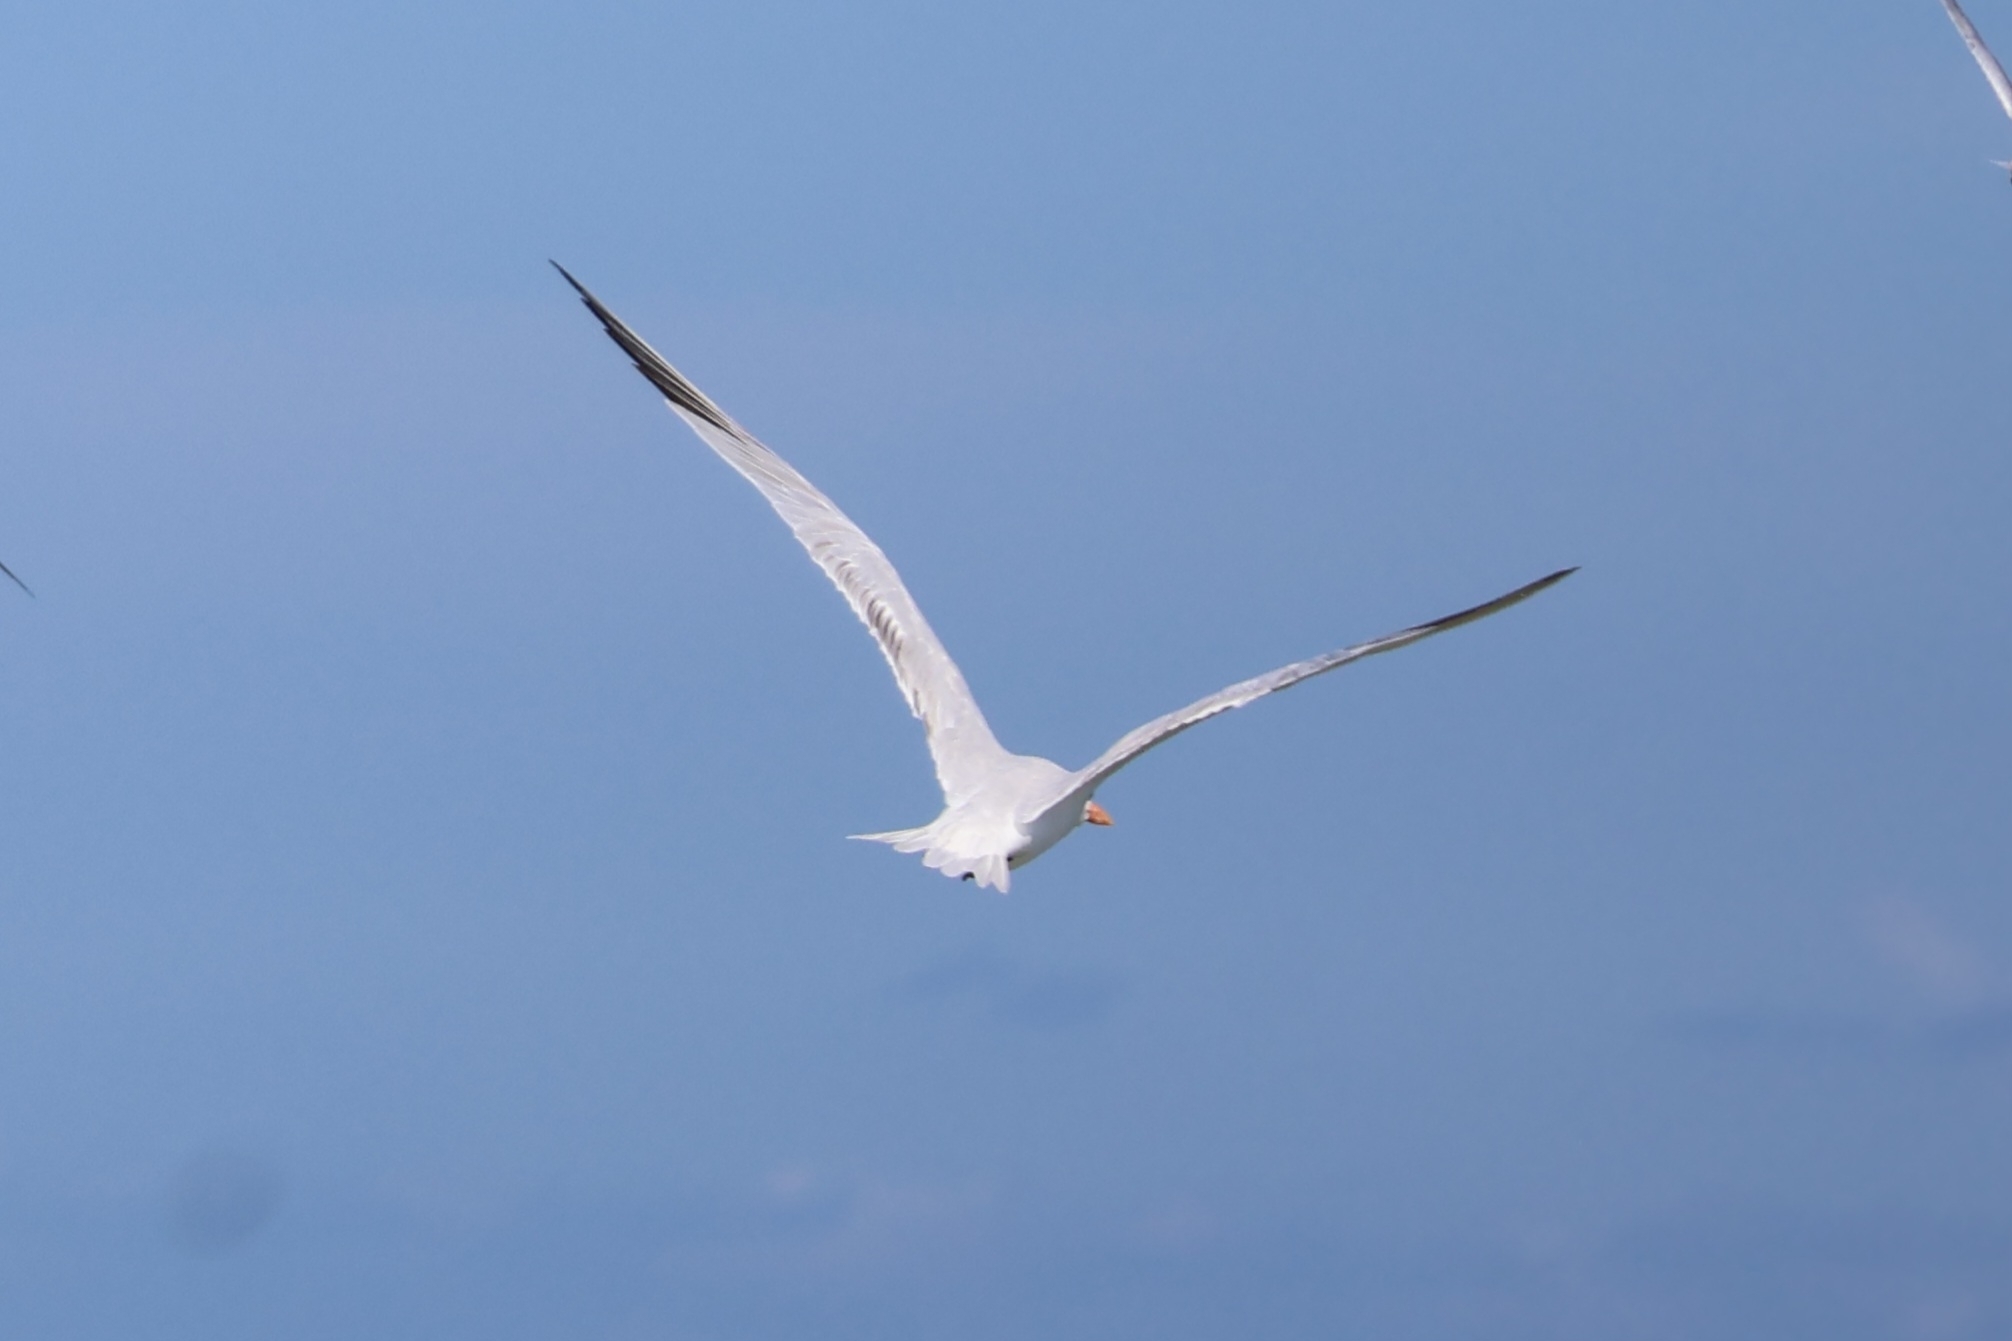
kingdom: Animalia
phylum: Chordata
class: Aves
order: Charadriiformes
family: Laridae
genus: Thalasseus
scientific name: Thalasseus maximus
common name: Royal tern
